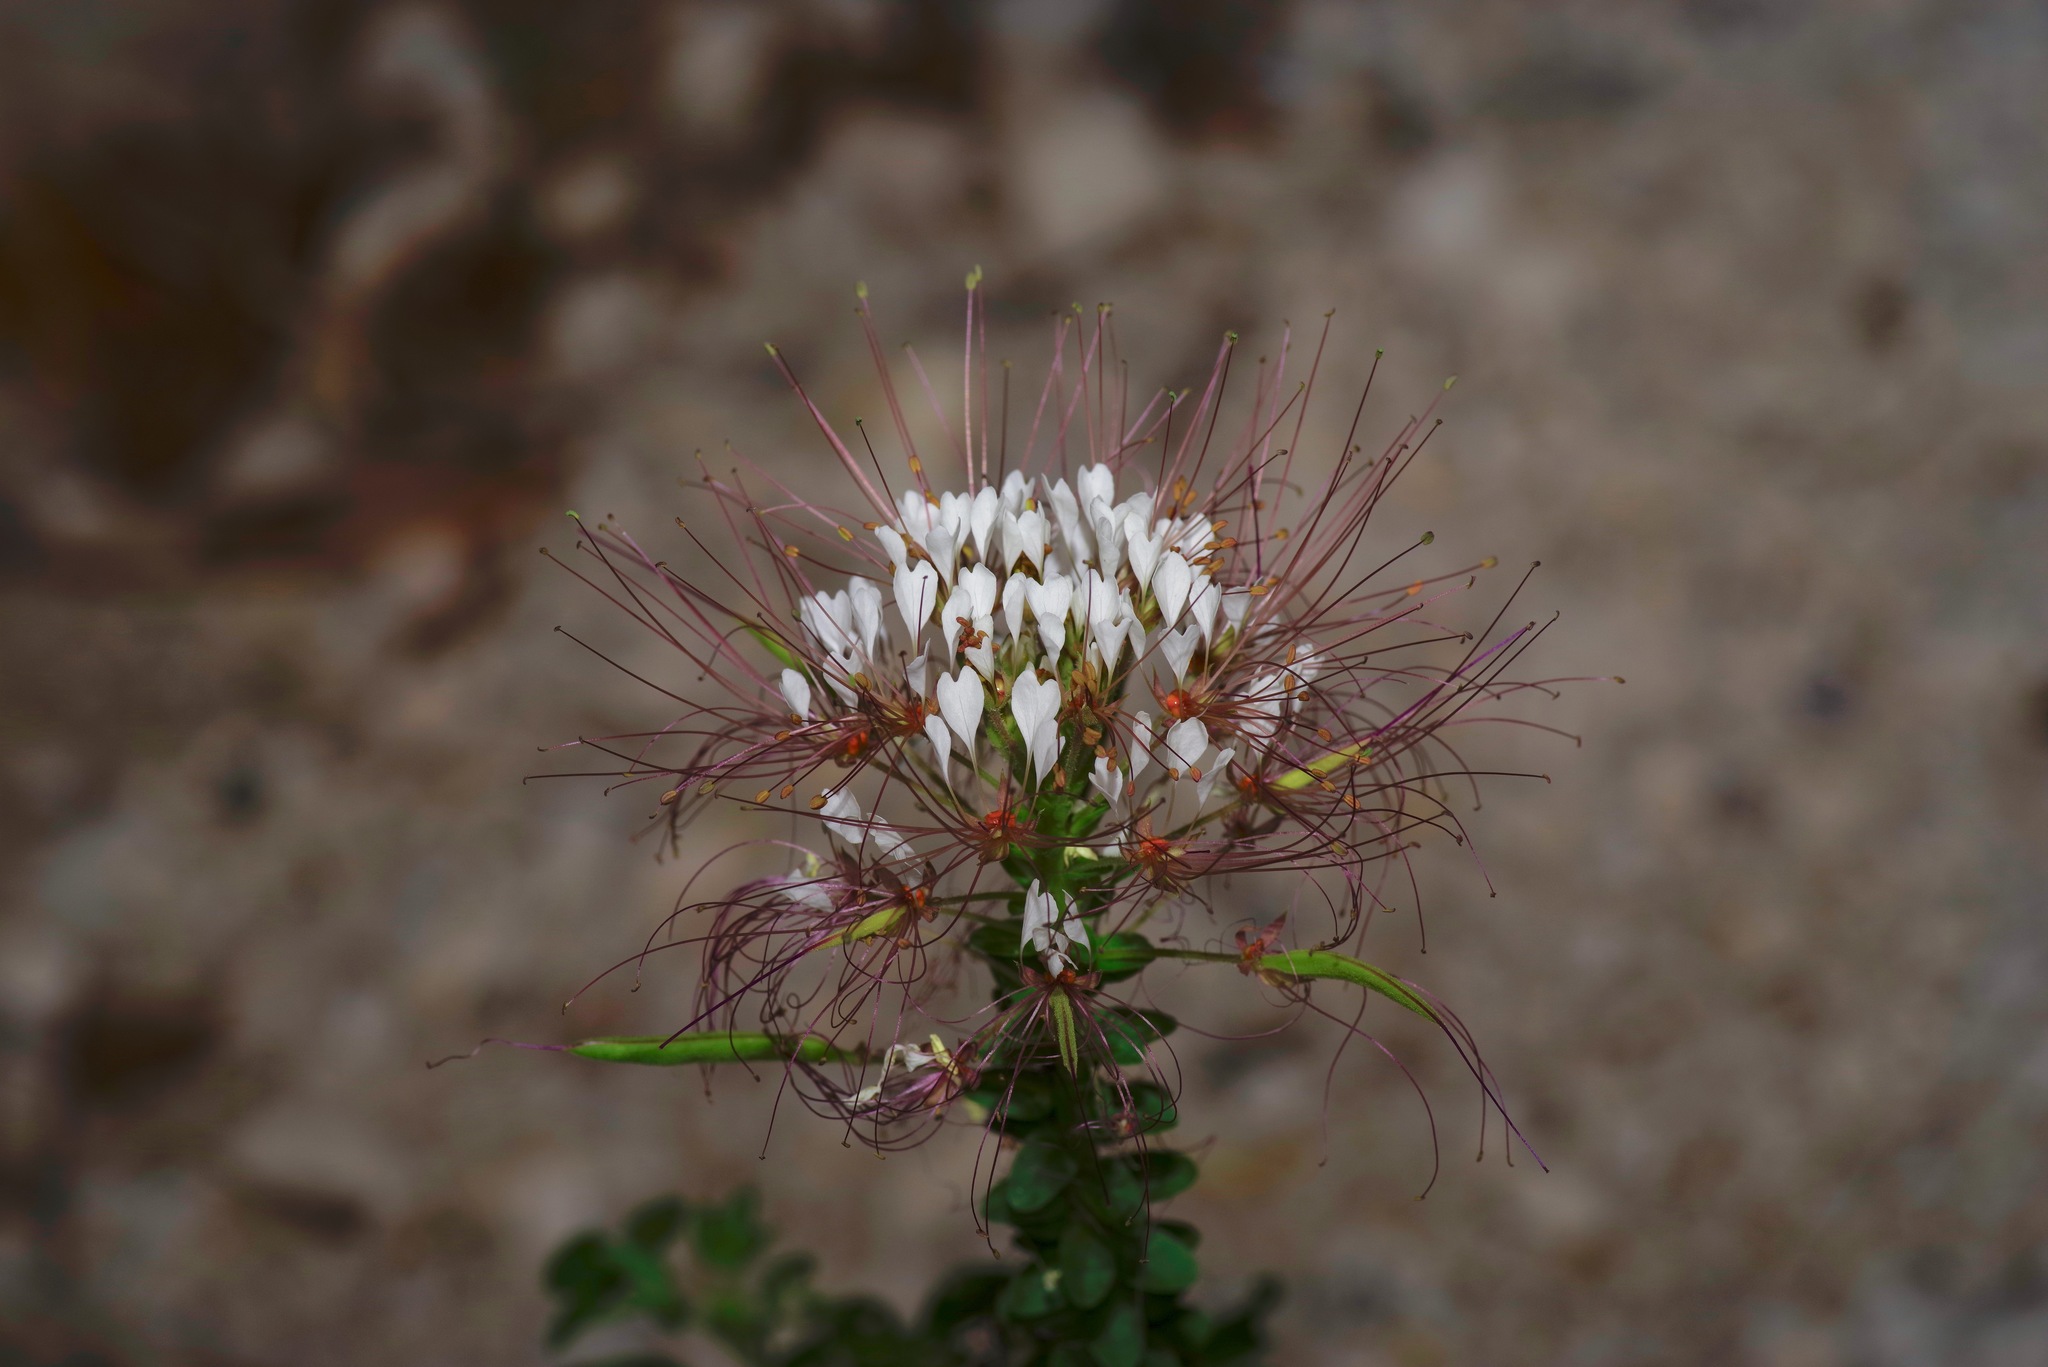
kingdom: Plantae
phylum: Tracheophyta
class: Magnoliopsida
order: Brassicales
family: Cleomaceae
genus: Polanisia
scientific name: Polanisia dodecandra
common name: Clammyweed
